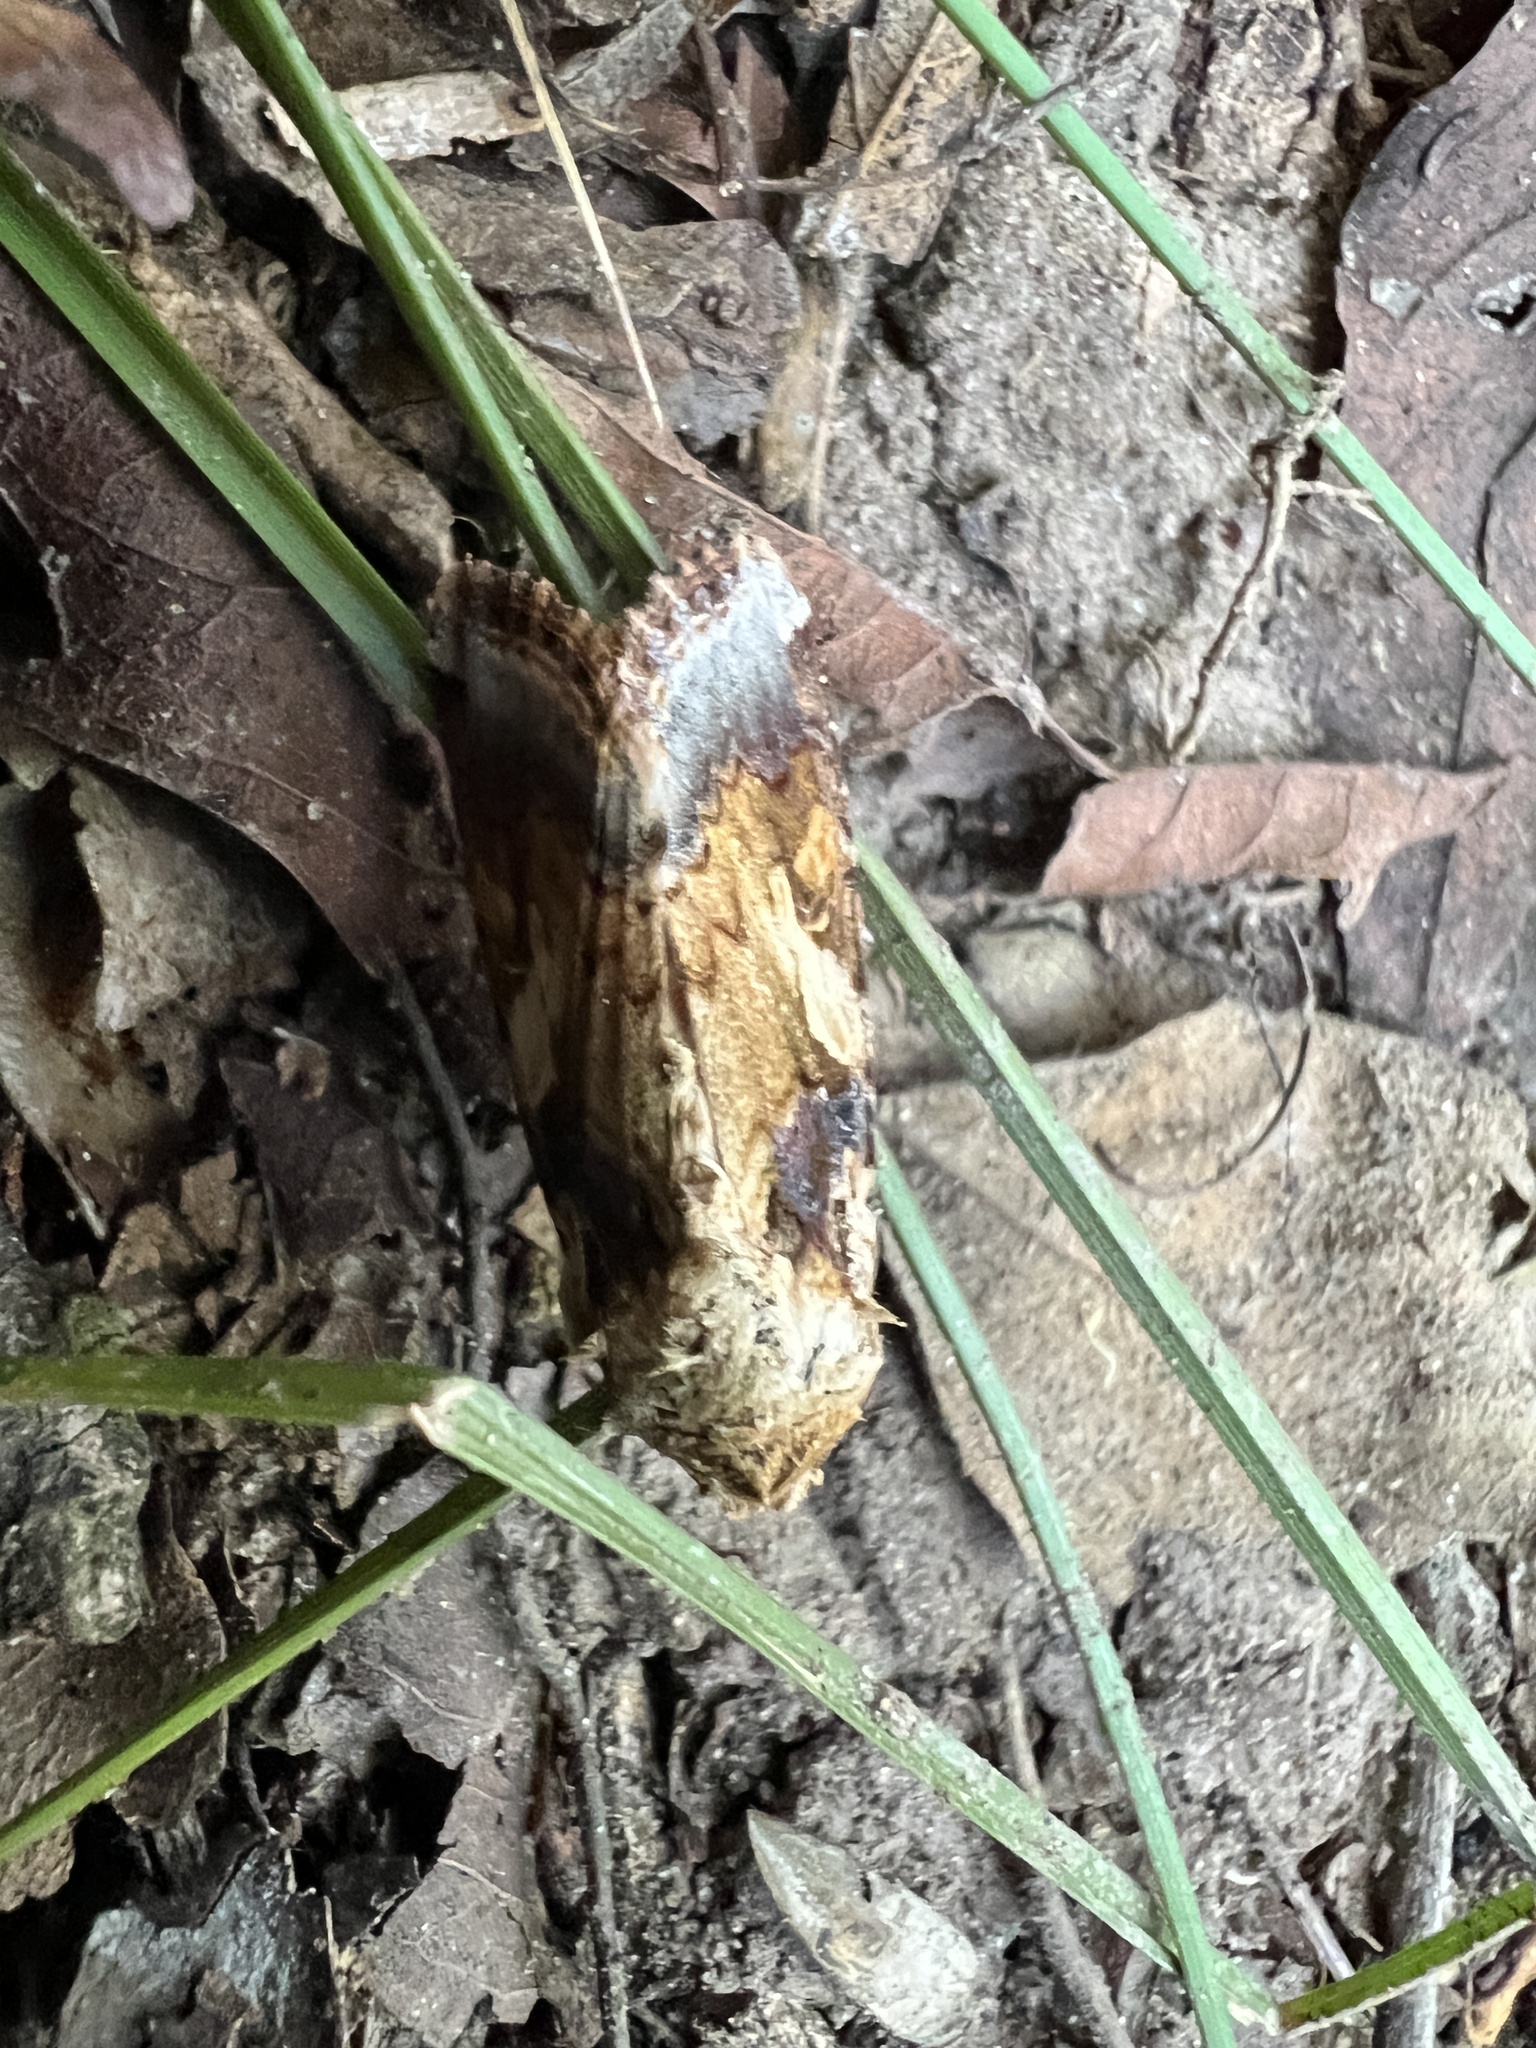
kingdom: Animalia
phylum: Arthropoda
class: Insecta
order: Lepidoptera
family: Noctuidae
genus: Spodoptera
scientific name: Spodoptera latifascia
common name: Velvet armyworm moth
